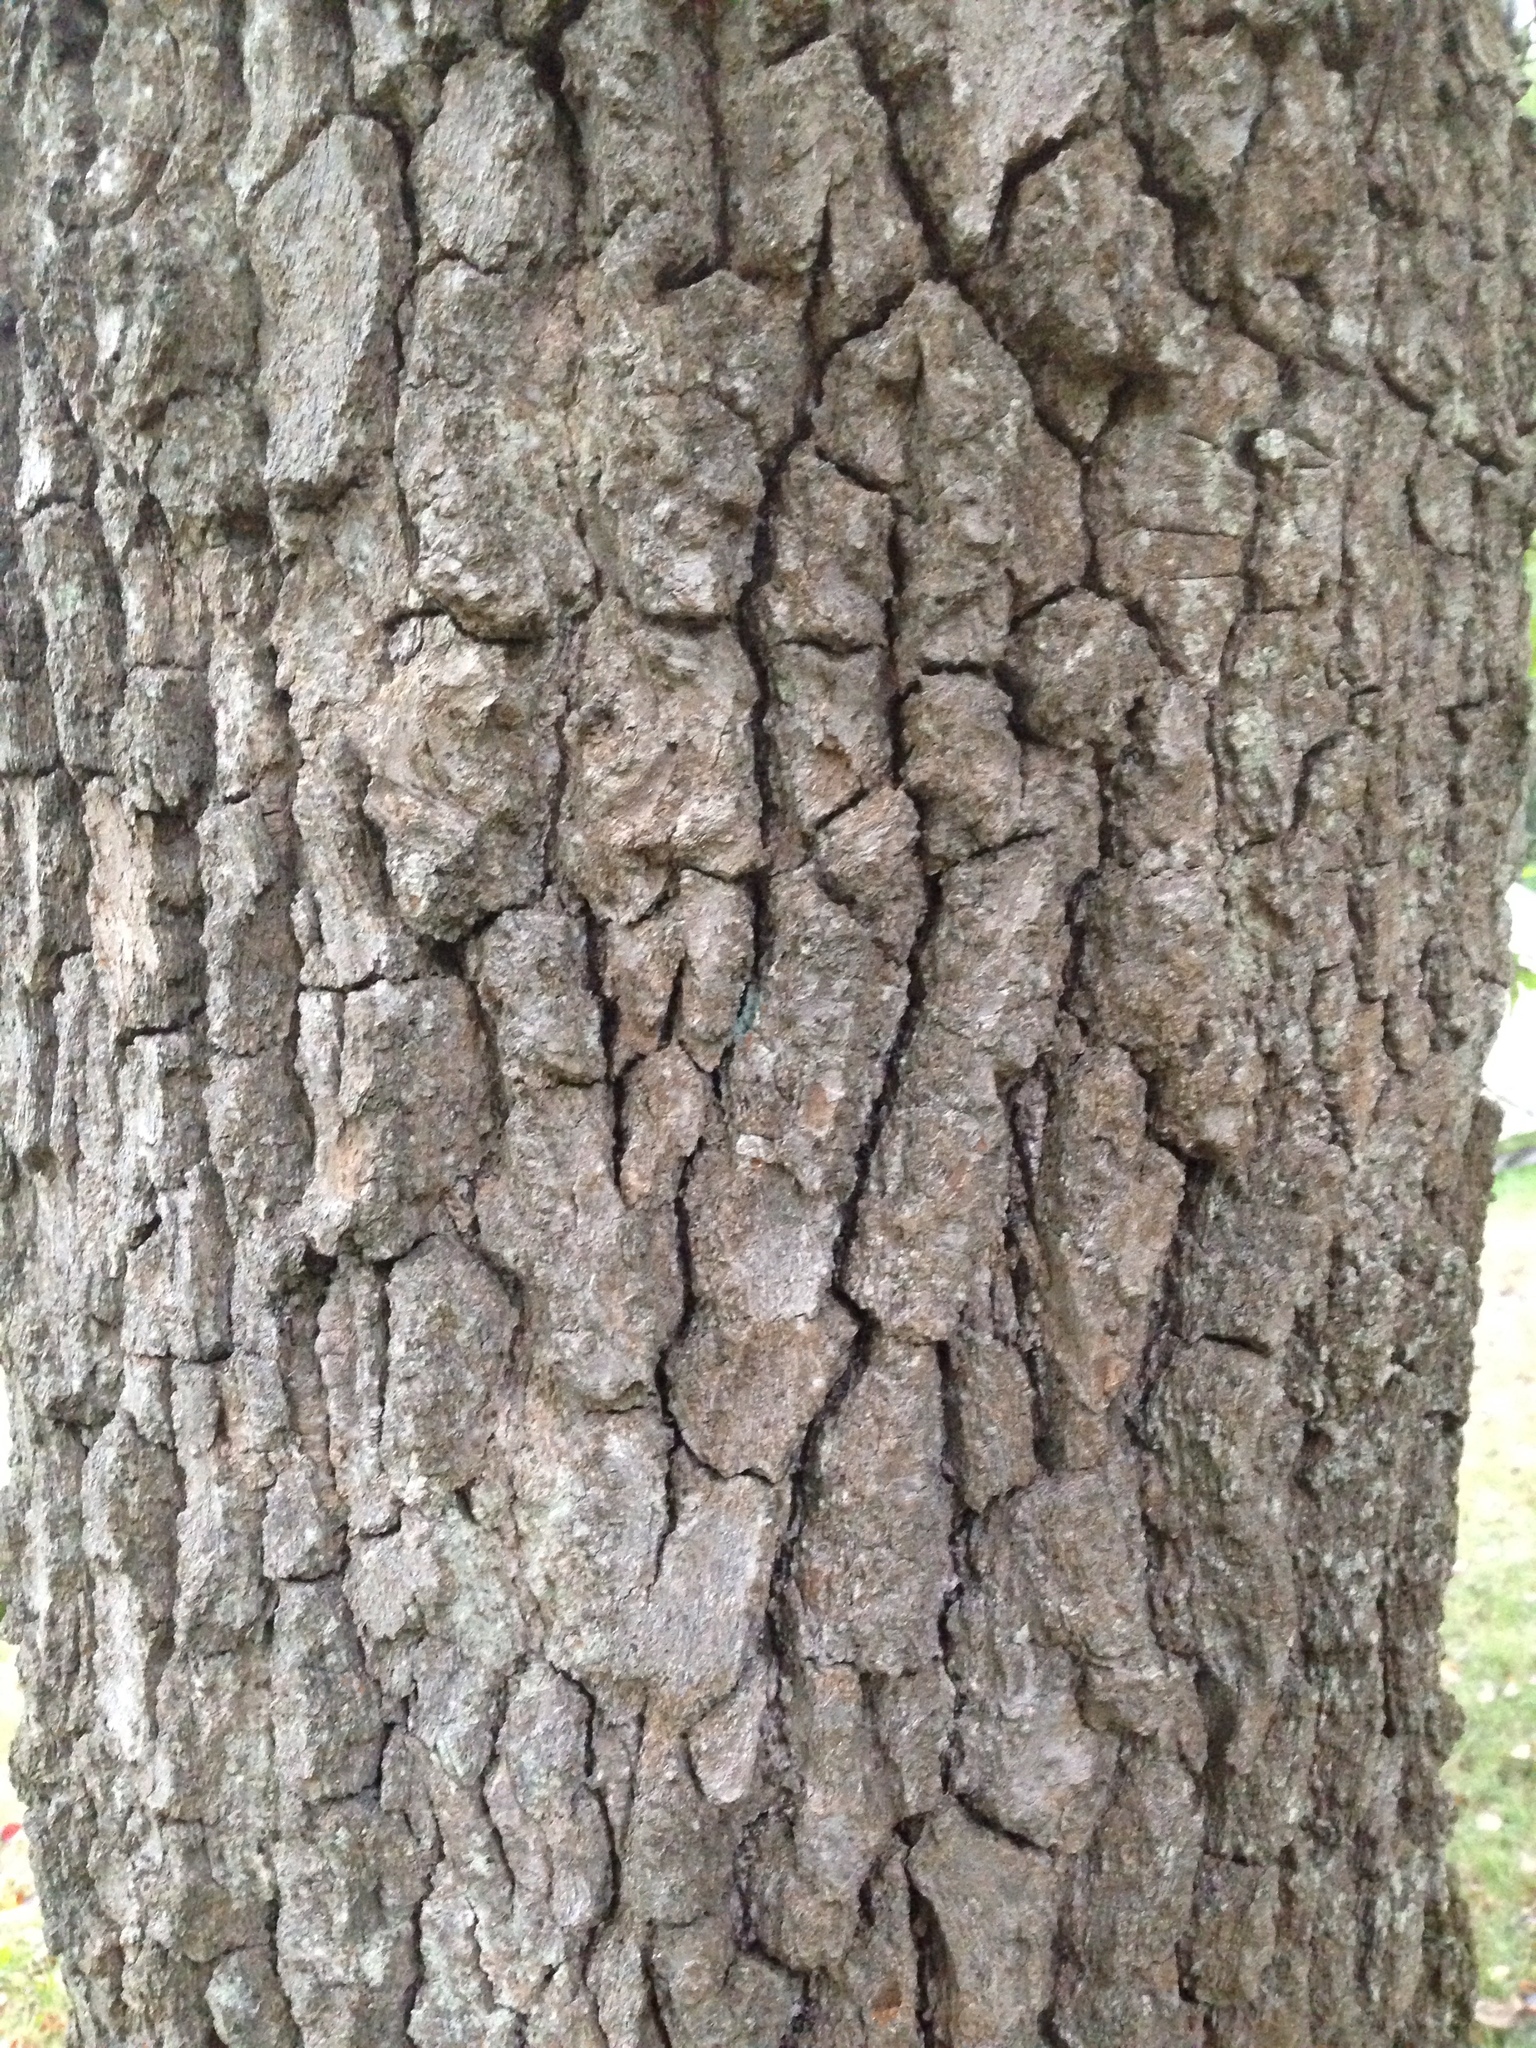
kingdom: Plantae
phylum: Tracheophyta
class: Magnoliopsida
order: Cornales
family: Nyssaceae
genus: Nyssa
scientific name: Nyssa sylvatica
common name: Black tupelo
